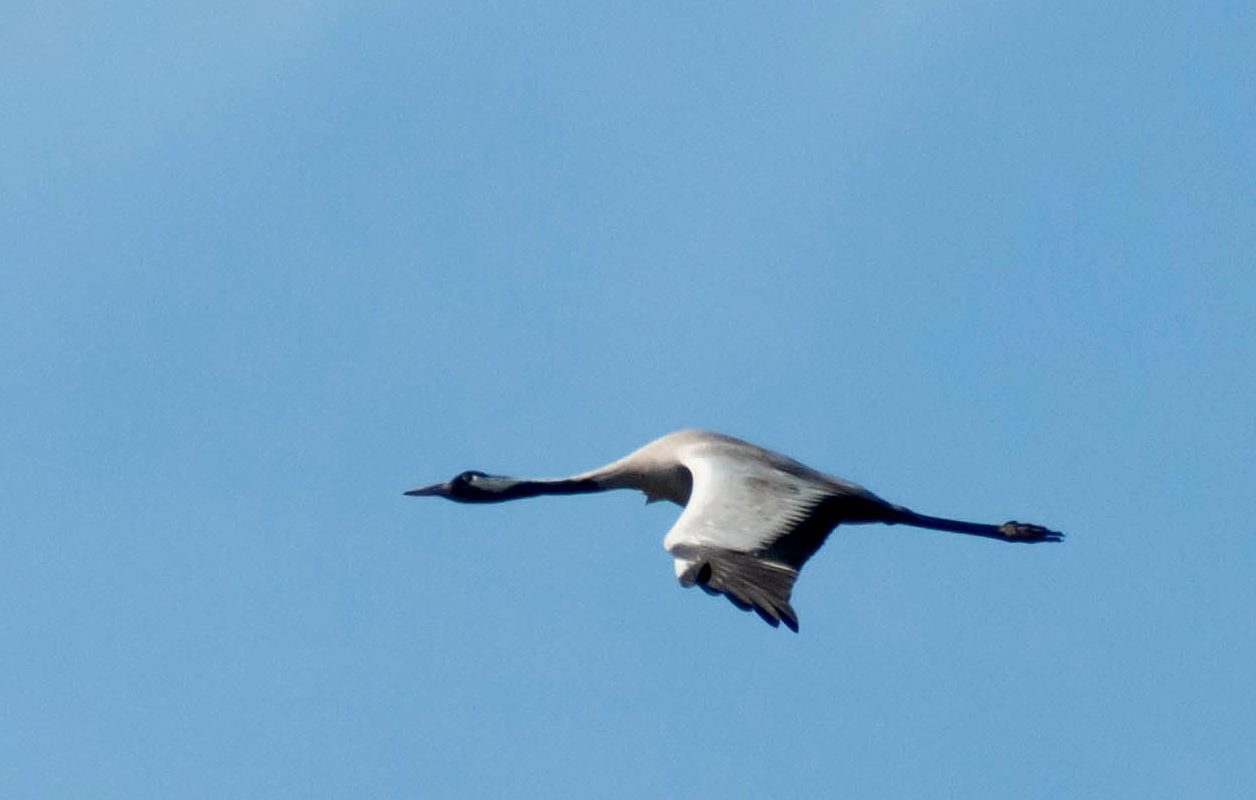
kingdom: Animalia
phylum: Chordata
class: Aves
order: Gruiformes
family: Gruidae
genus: Grus
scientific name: Grus grus
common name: Common crane
